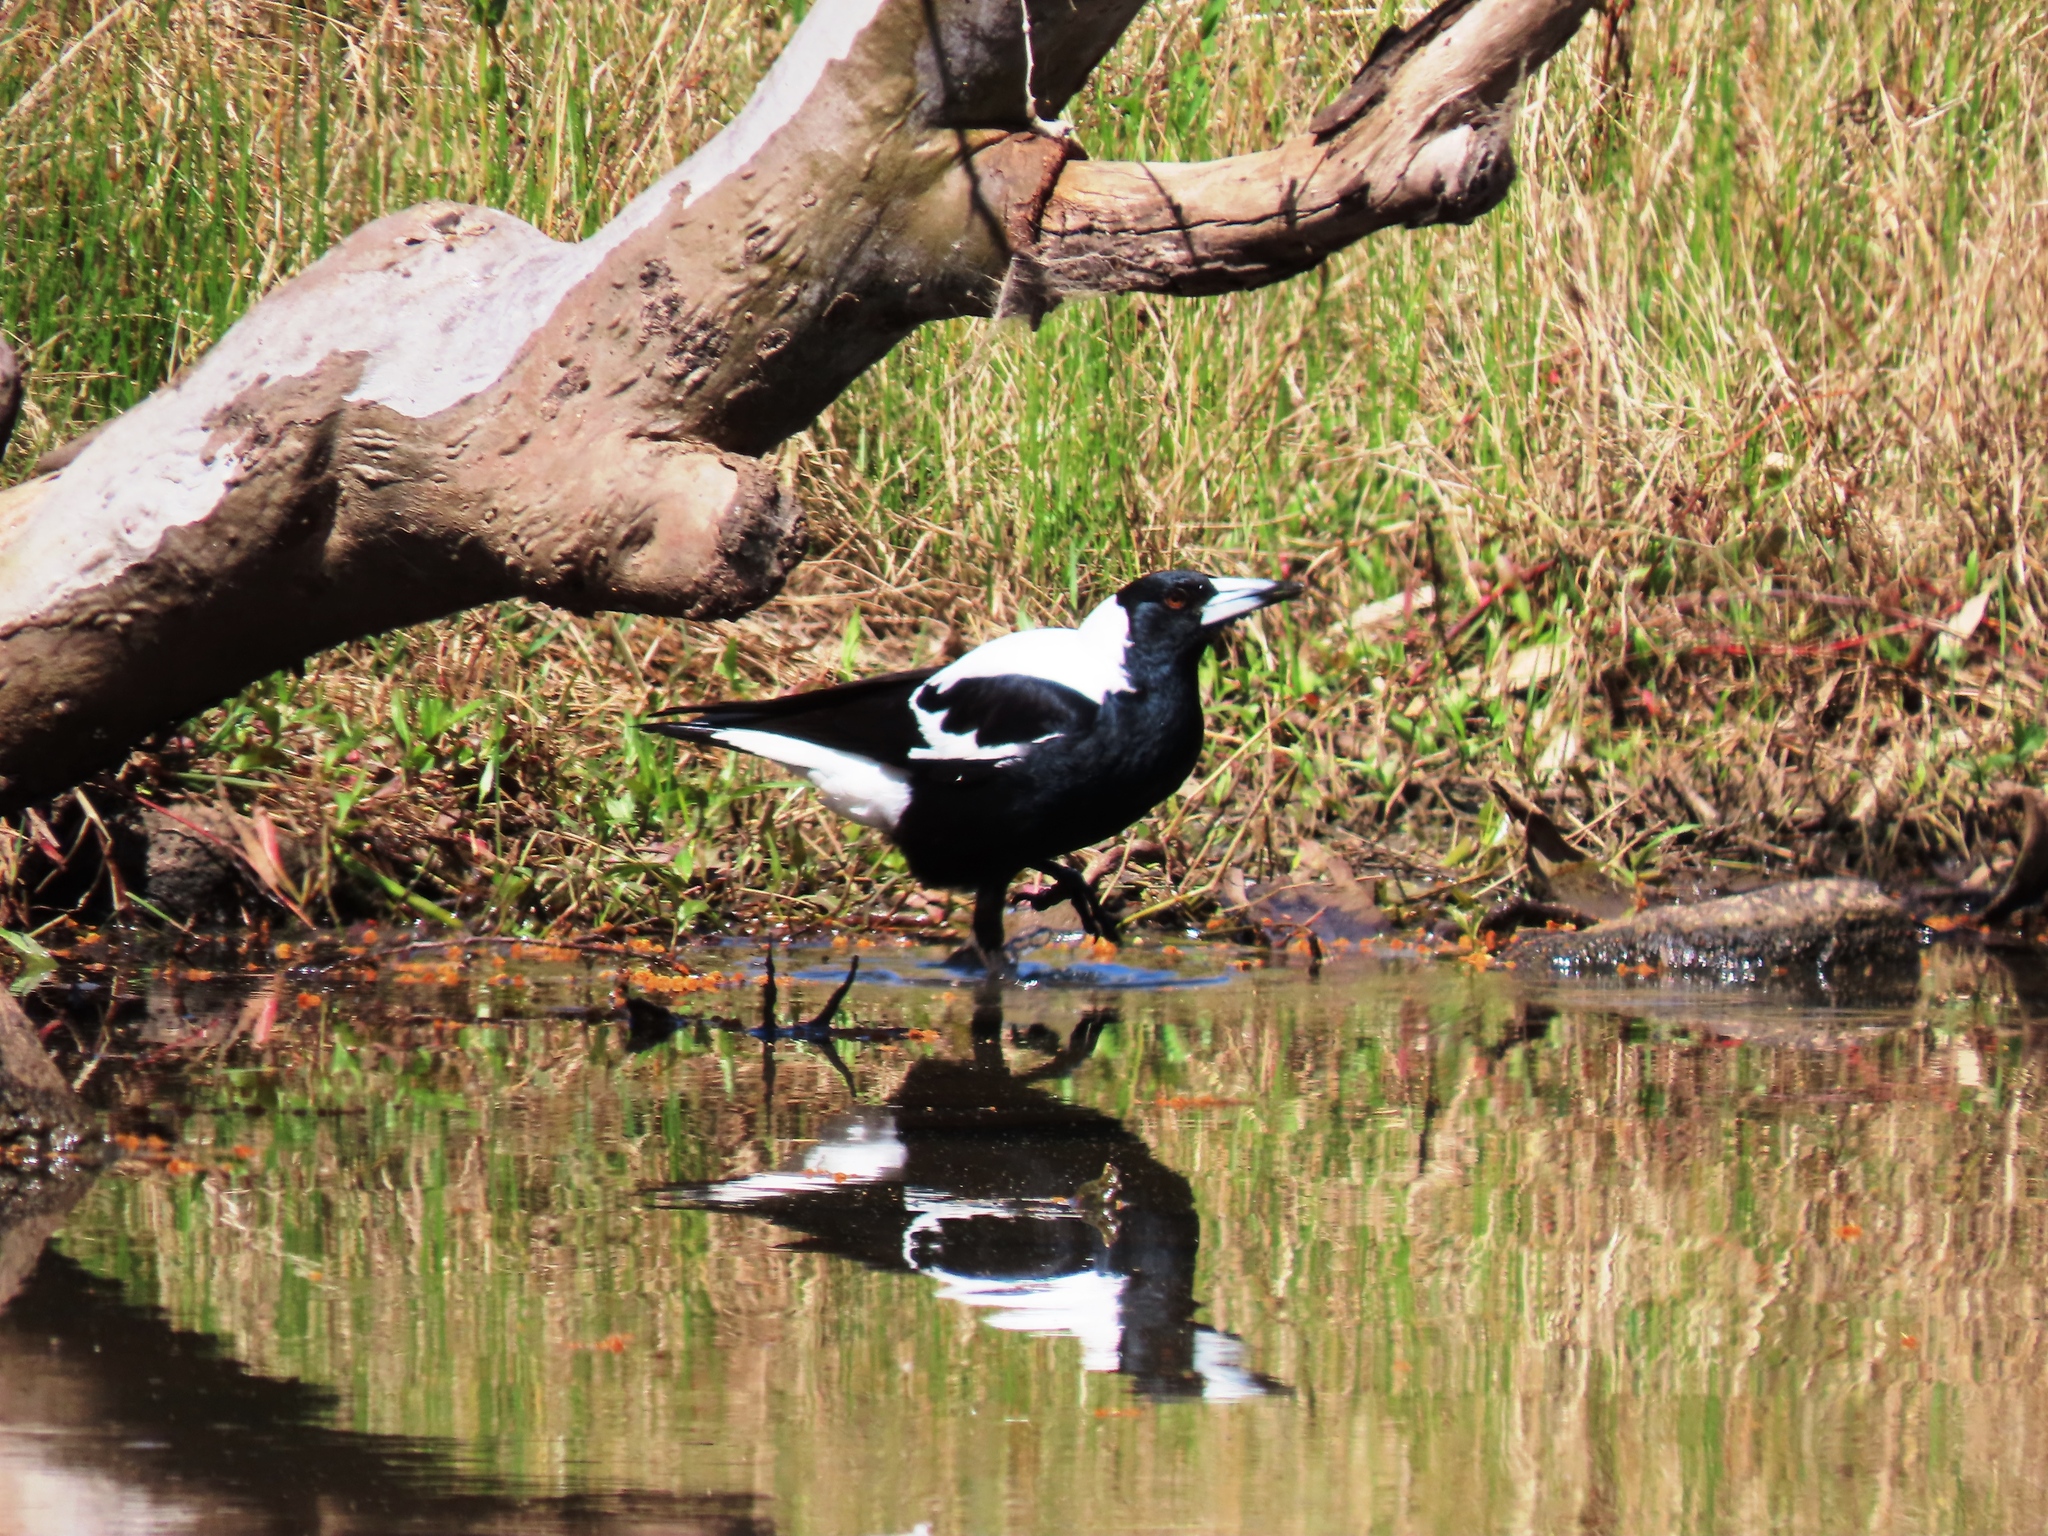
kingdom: Animalia
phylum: Chordata
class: Aves
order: Passeriformes
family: Cracticidae
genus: Gymnorhina
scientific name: Gymnorhina tibicen
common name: Australian magpie
